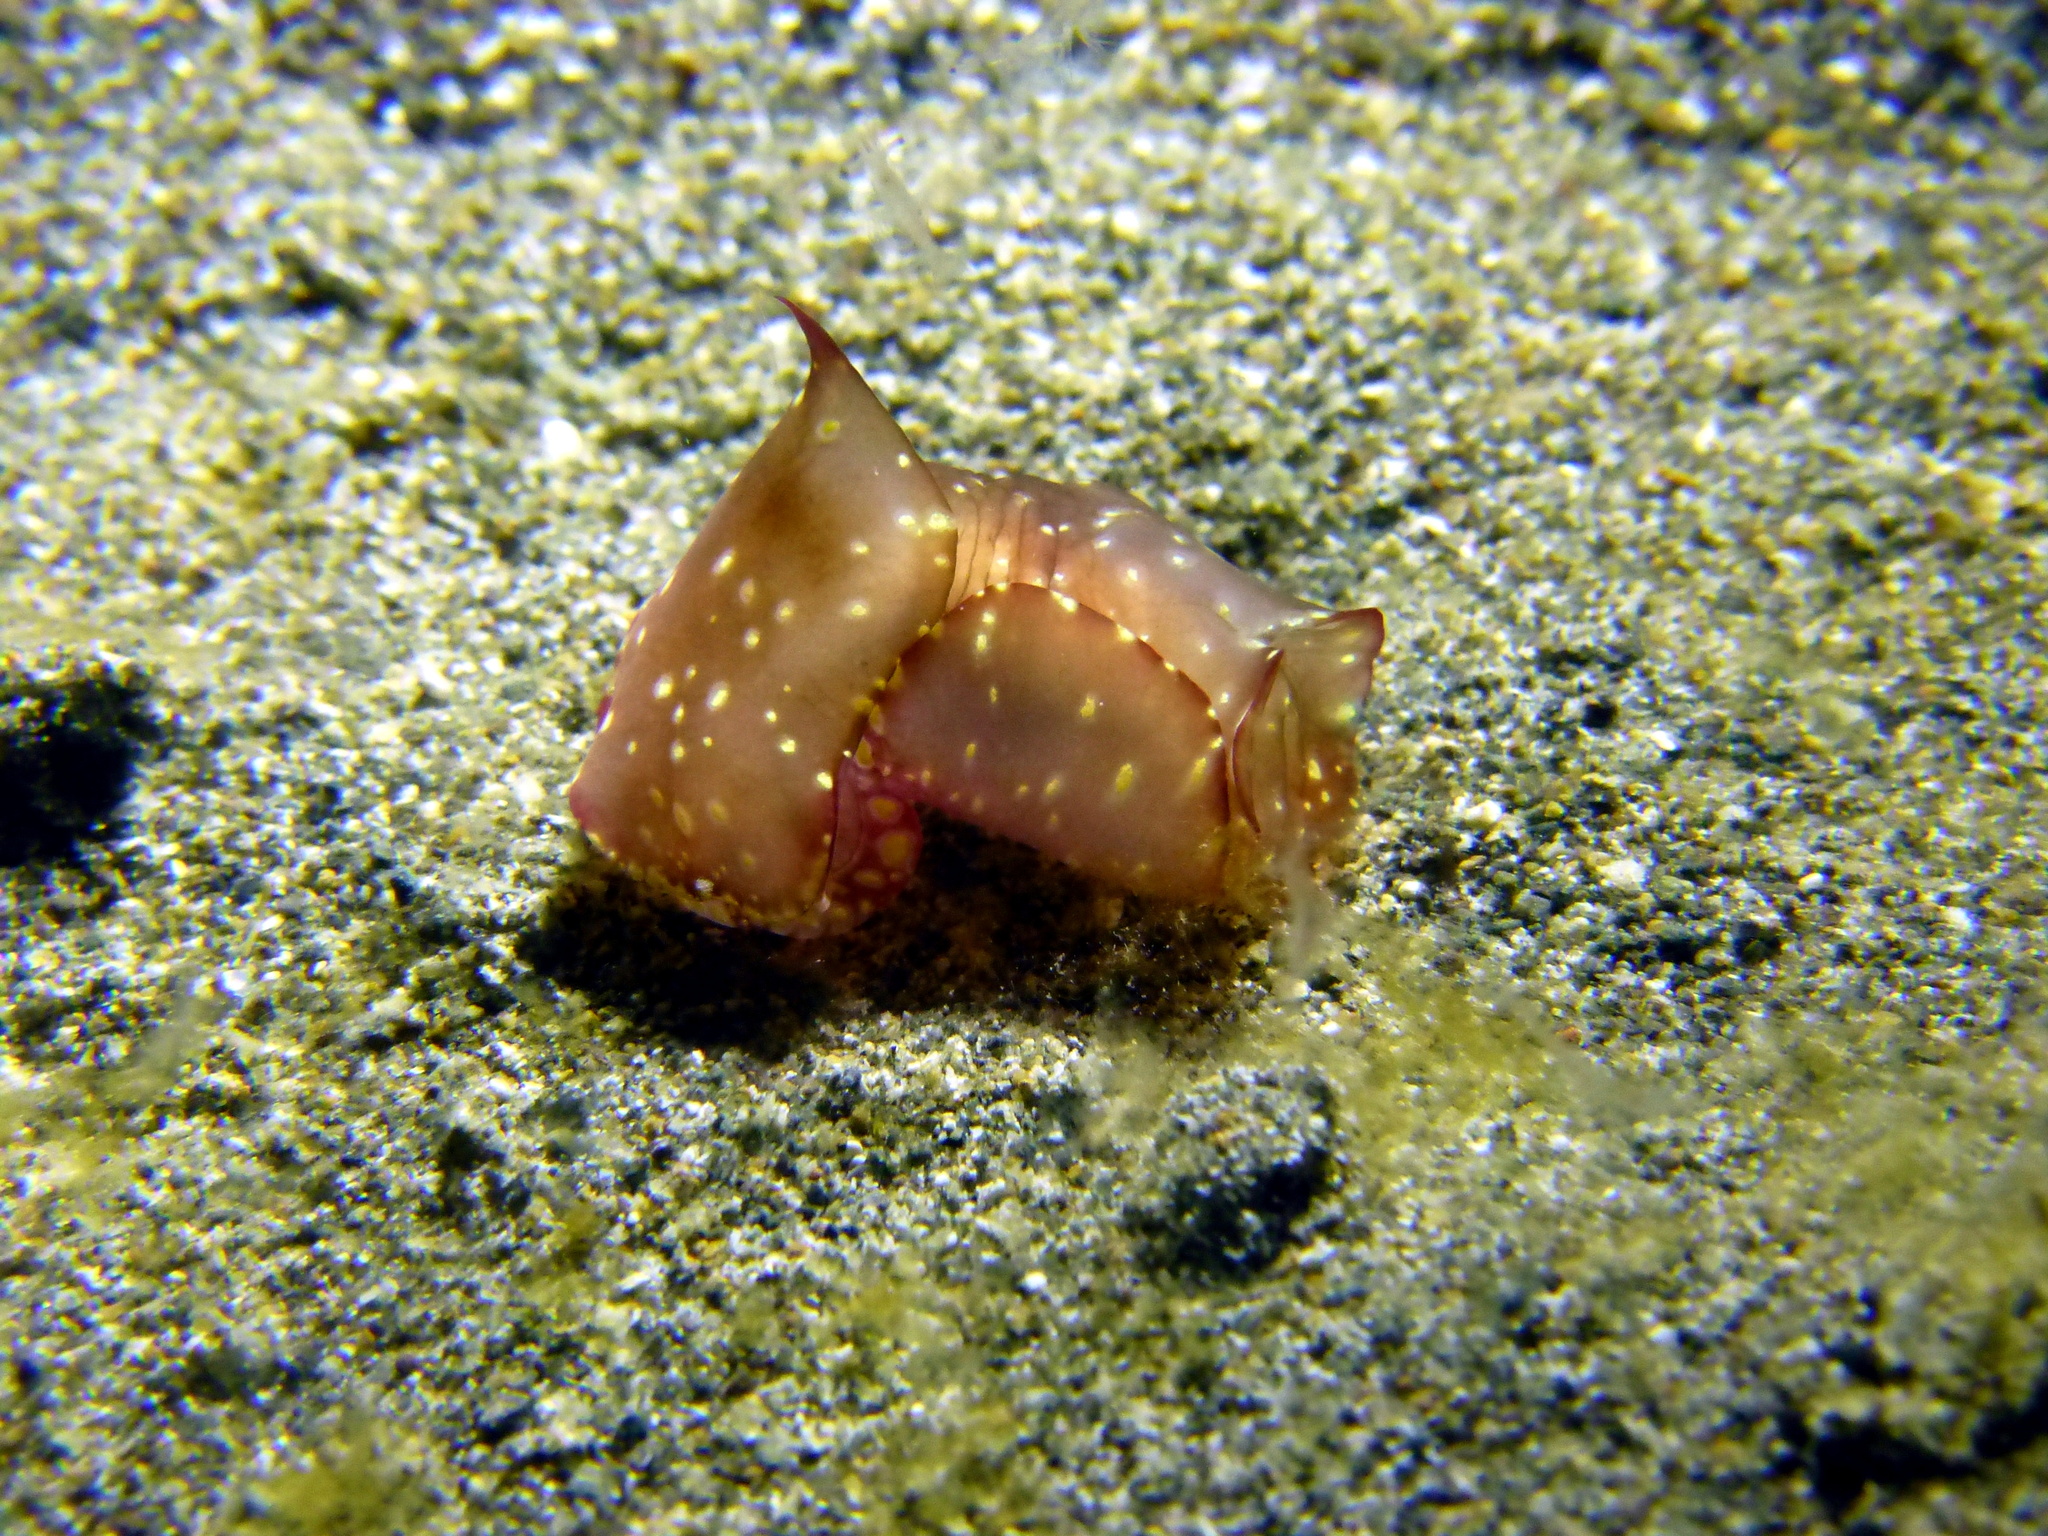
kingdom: Animalia
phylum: Mollusca
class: Gastropoda
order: Cephalaspidea
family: Aglajidae
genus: Philinopsis
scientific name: Philinopsis ctenophoraphaga
